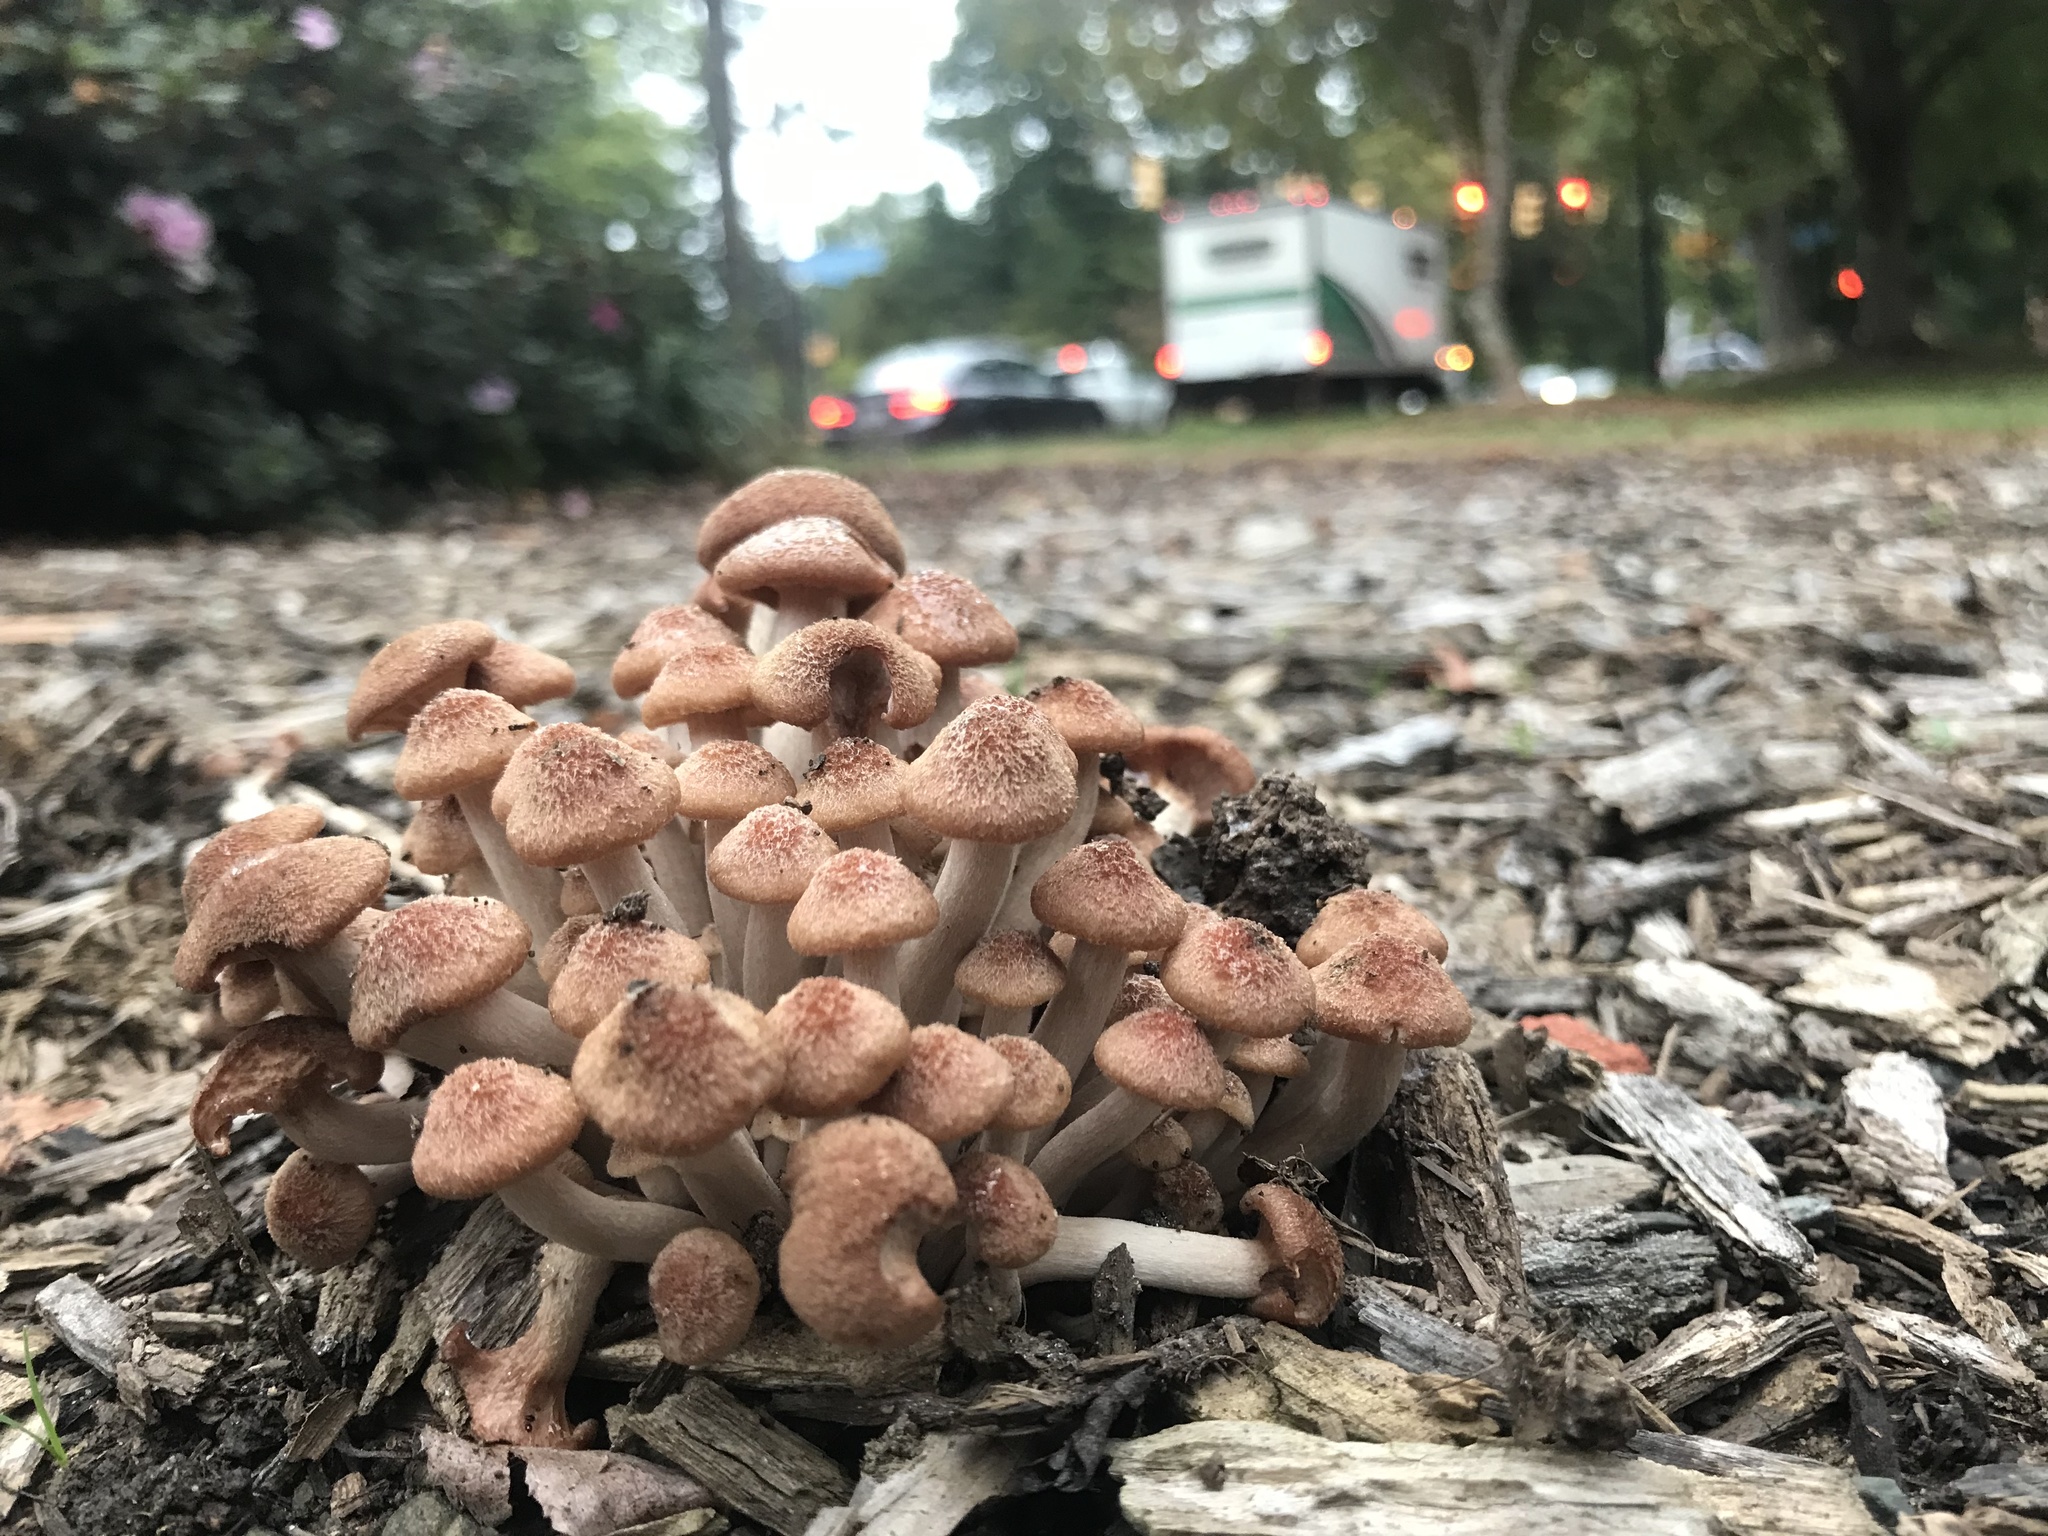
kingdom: Fungi
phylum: Basidiomycota
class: Agaricomycetes
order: Agaricales
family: Physalacriaceae
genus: Desarmillaria
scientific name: Desarmillaria caespitosa
